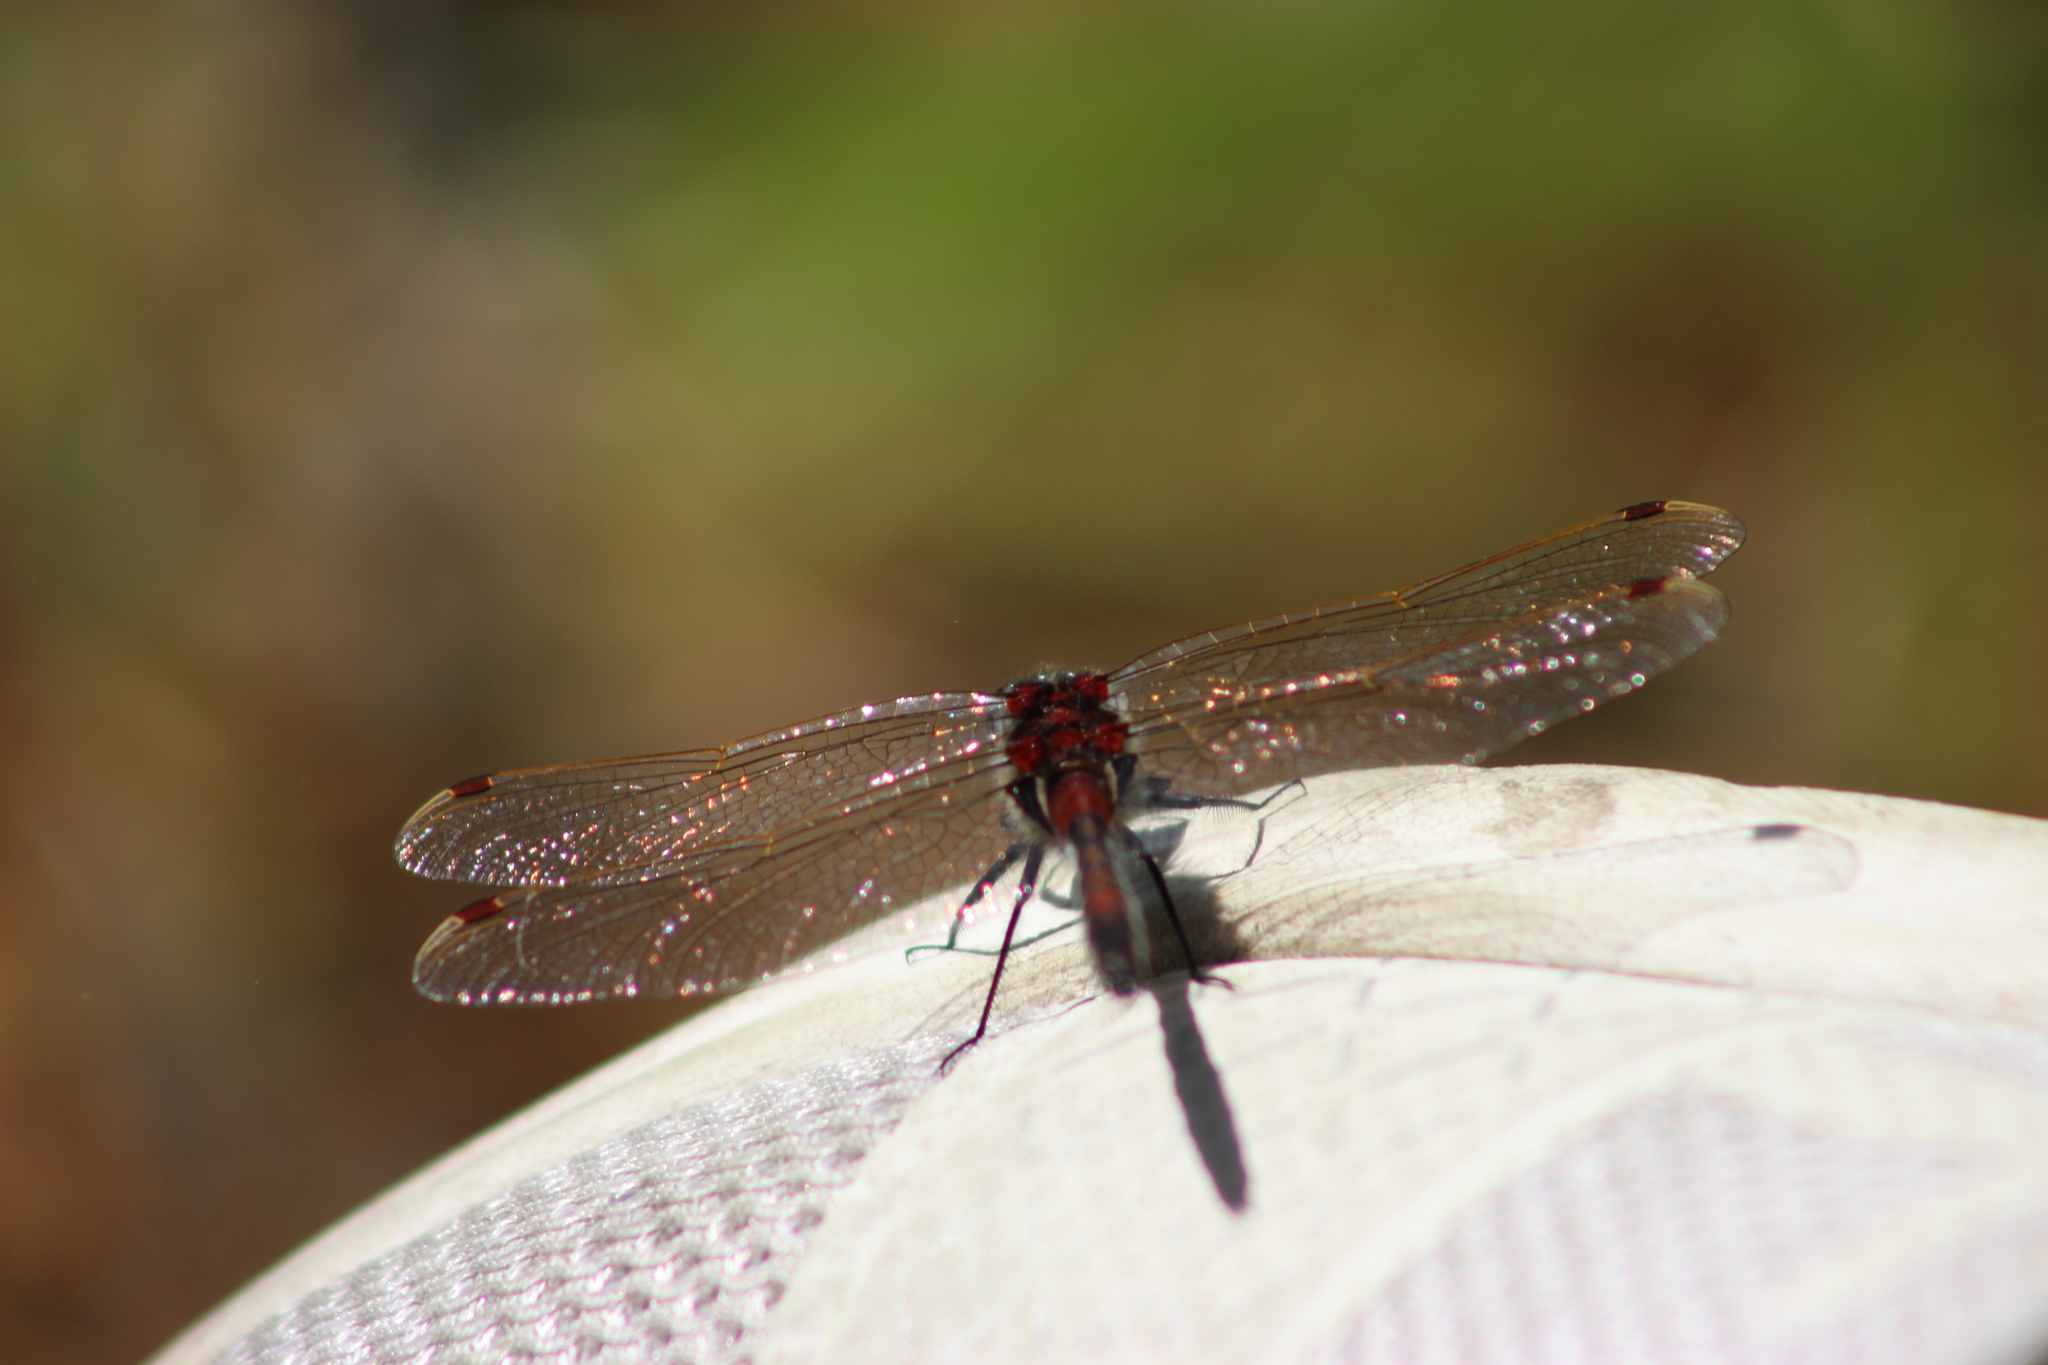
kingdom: Animalia
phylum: Arthropoda
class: Insecta
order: Odonata
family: Libellulidae
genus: Leucorrhinia
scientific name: Leucorrhinia rubicunda
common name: Ruby whiteface
